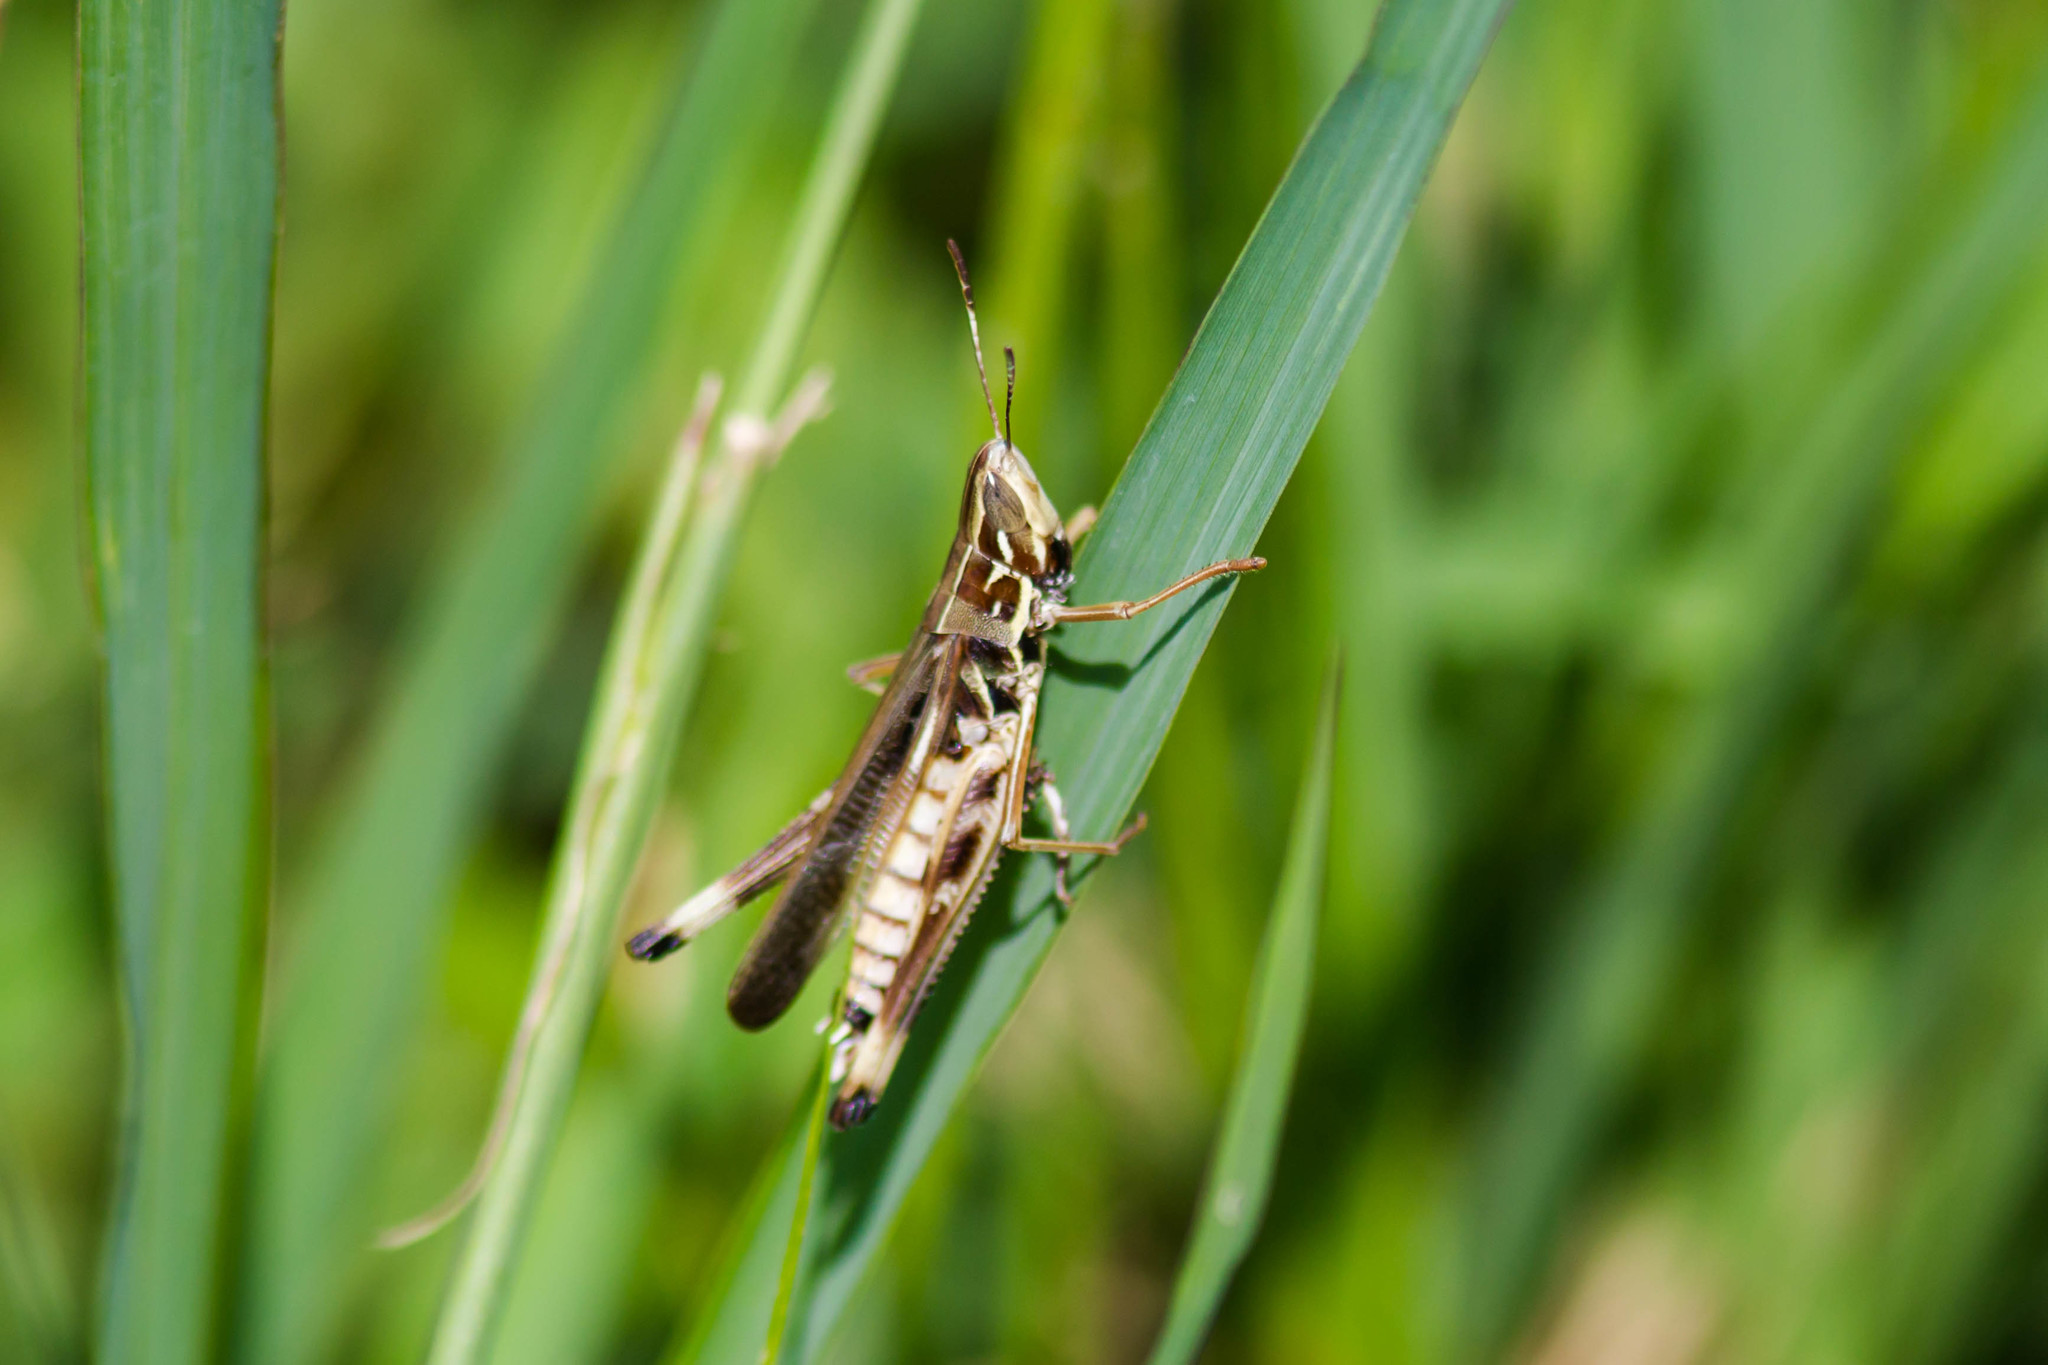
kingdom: Animalia
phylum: Arthropoda
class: Insecta
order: Orthoptera
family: Acrididae
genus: Syrbula
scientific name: Syrbula admirabilis
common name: Handsome grasshopper
